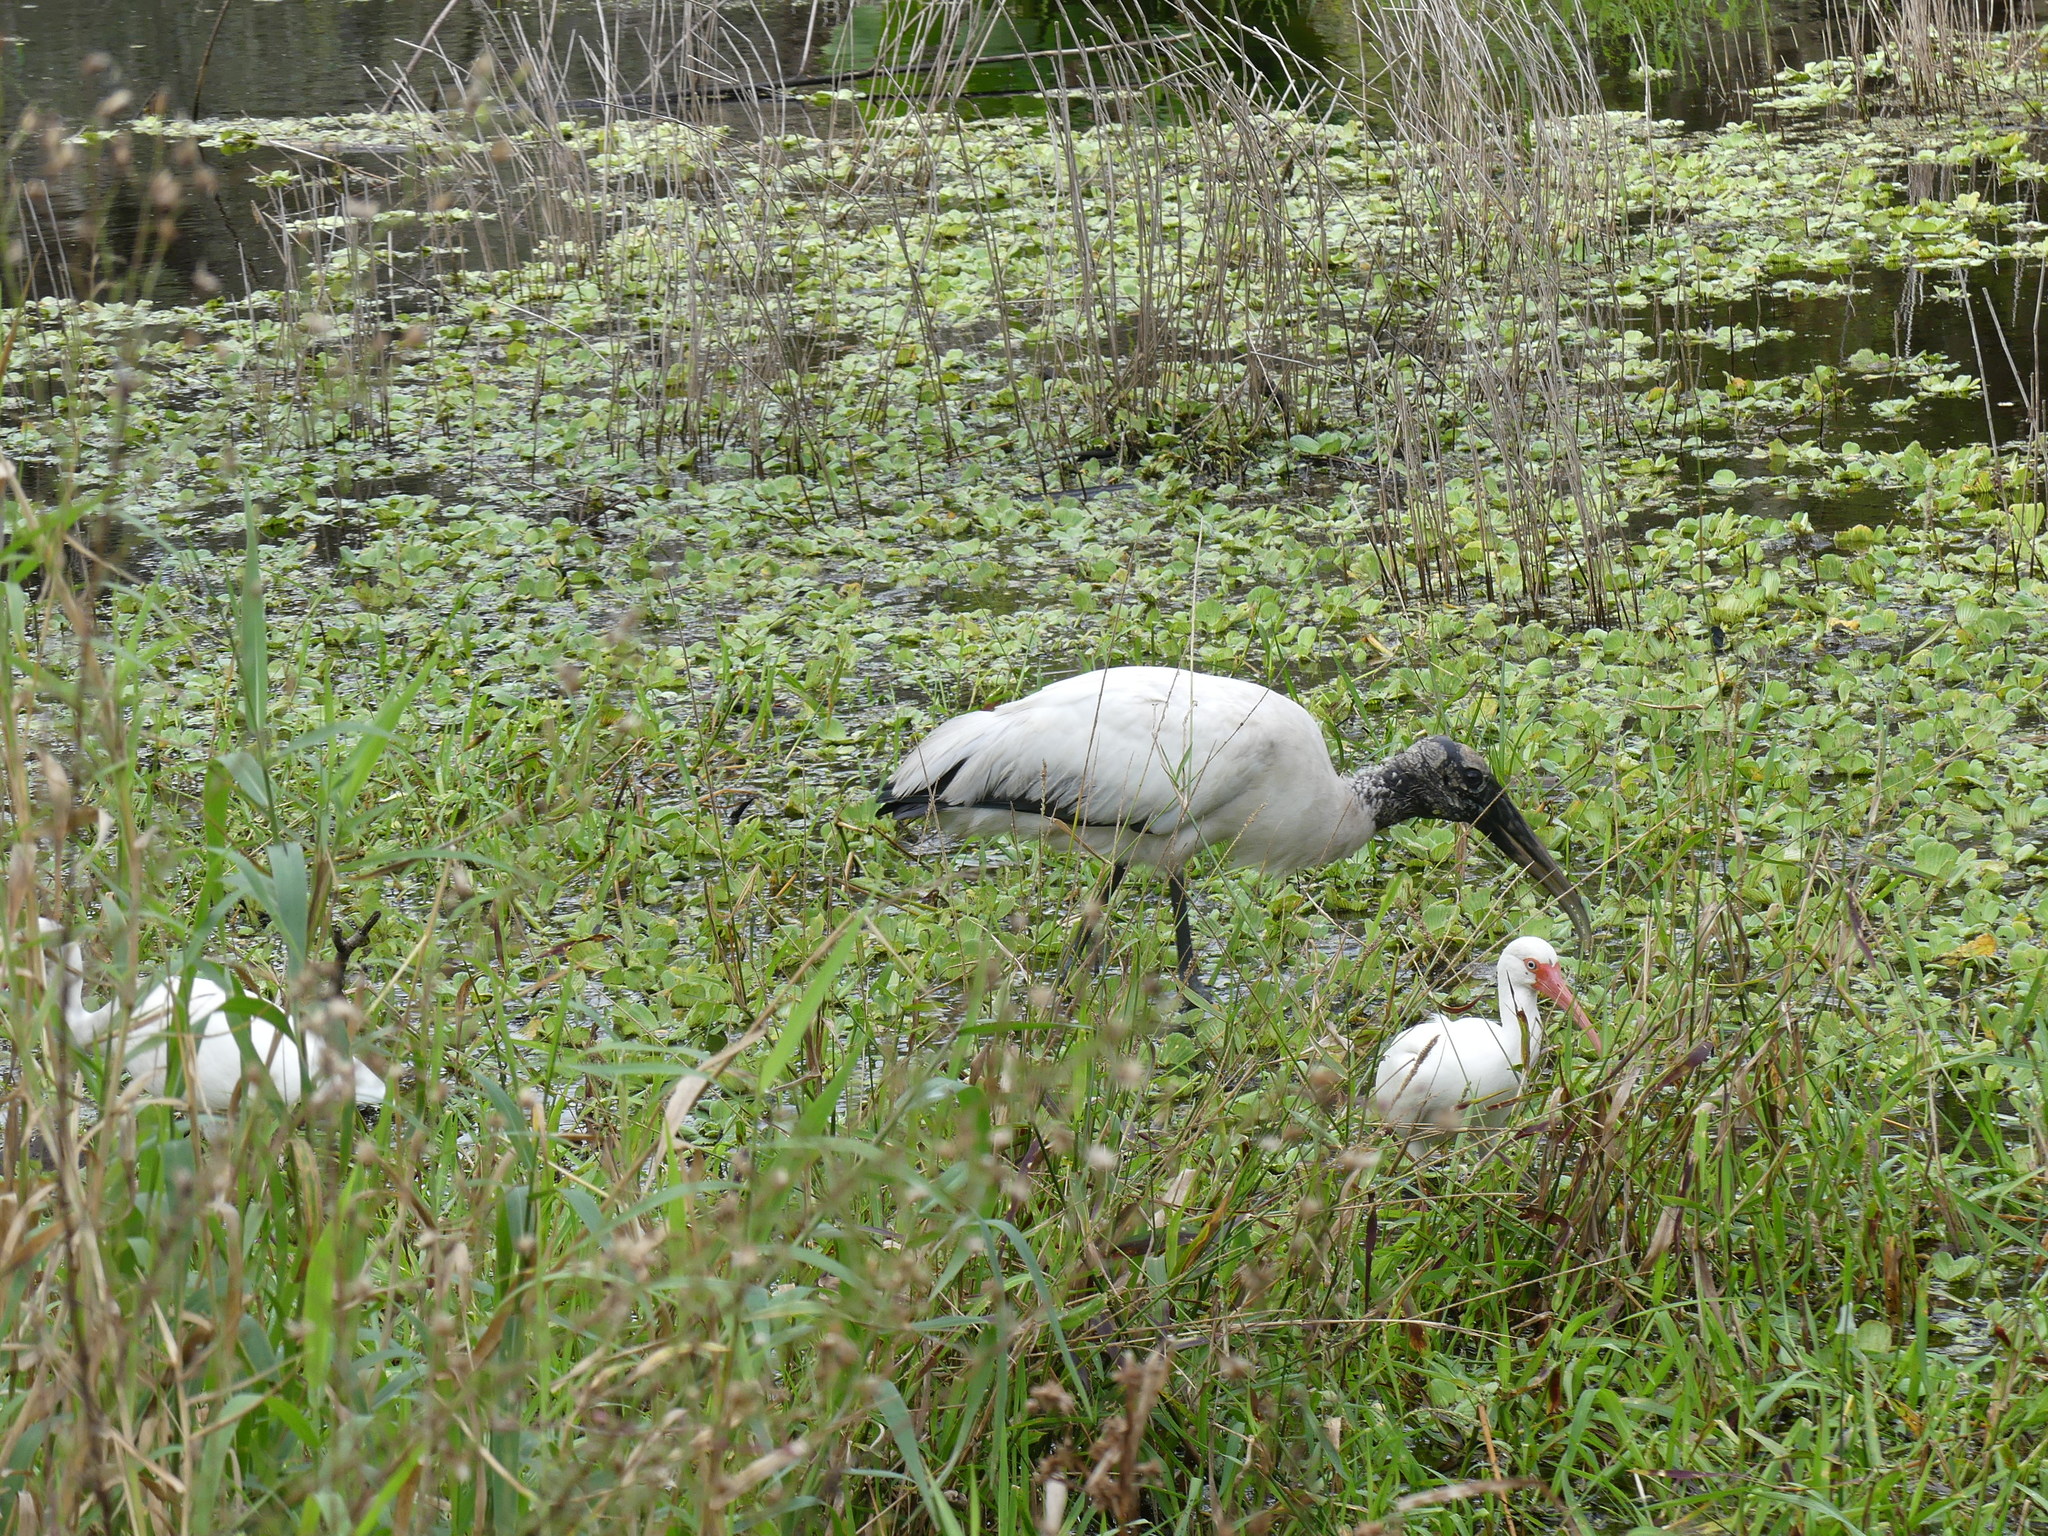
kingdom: Animalia
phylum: Chordata
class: Aves
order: Pelecaniformes
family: Threskiornithidae
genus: Eudocimus
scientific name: Eudocimus albus
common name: White ibis
